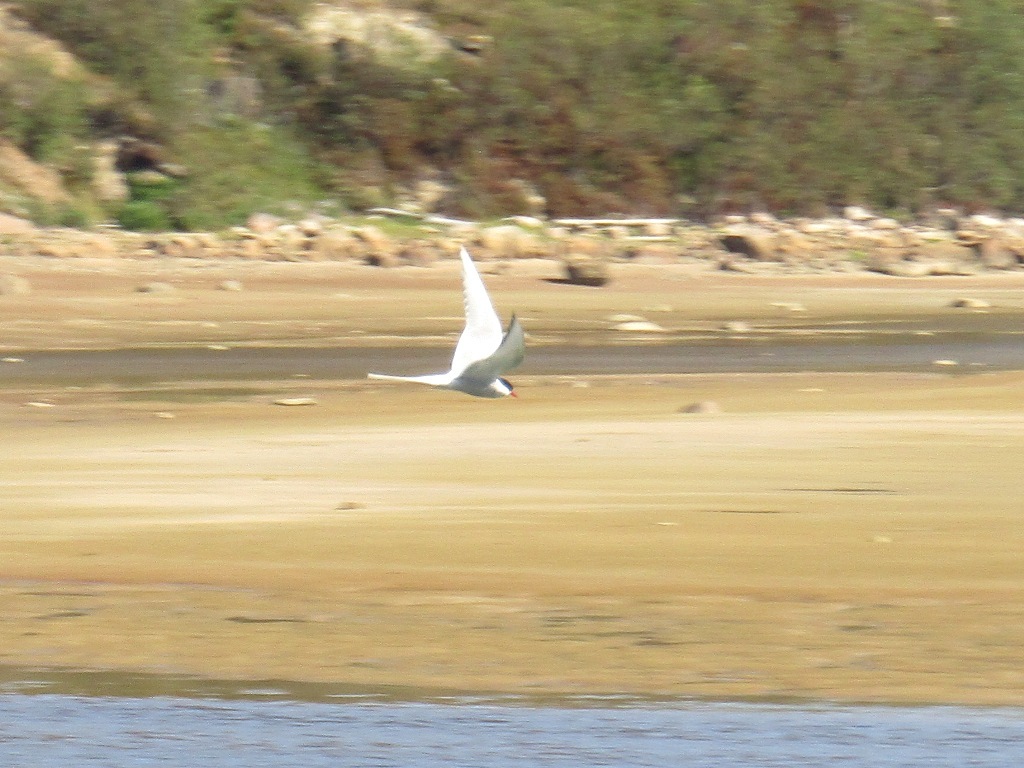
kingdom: Animalia
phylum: Chordata
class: Aves
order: Charadriiformes
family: Laridae
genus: Sterna
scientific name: Sterna paradisaea
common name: Arctic tern
